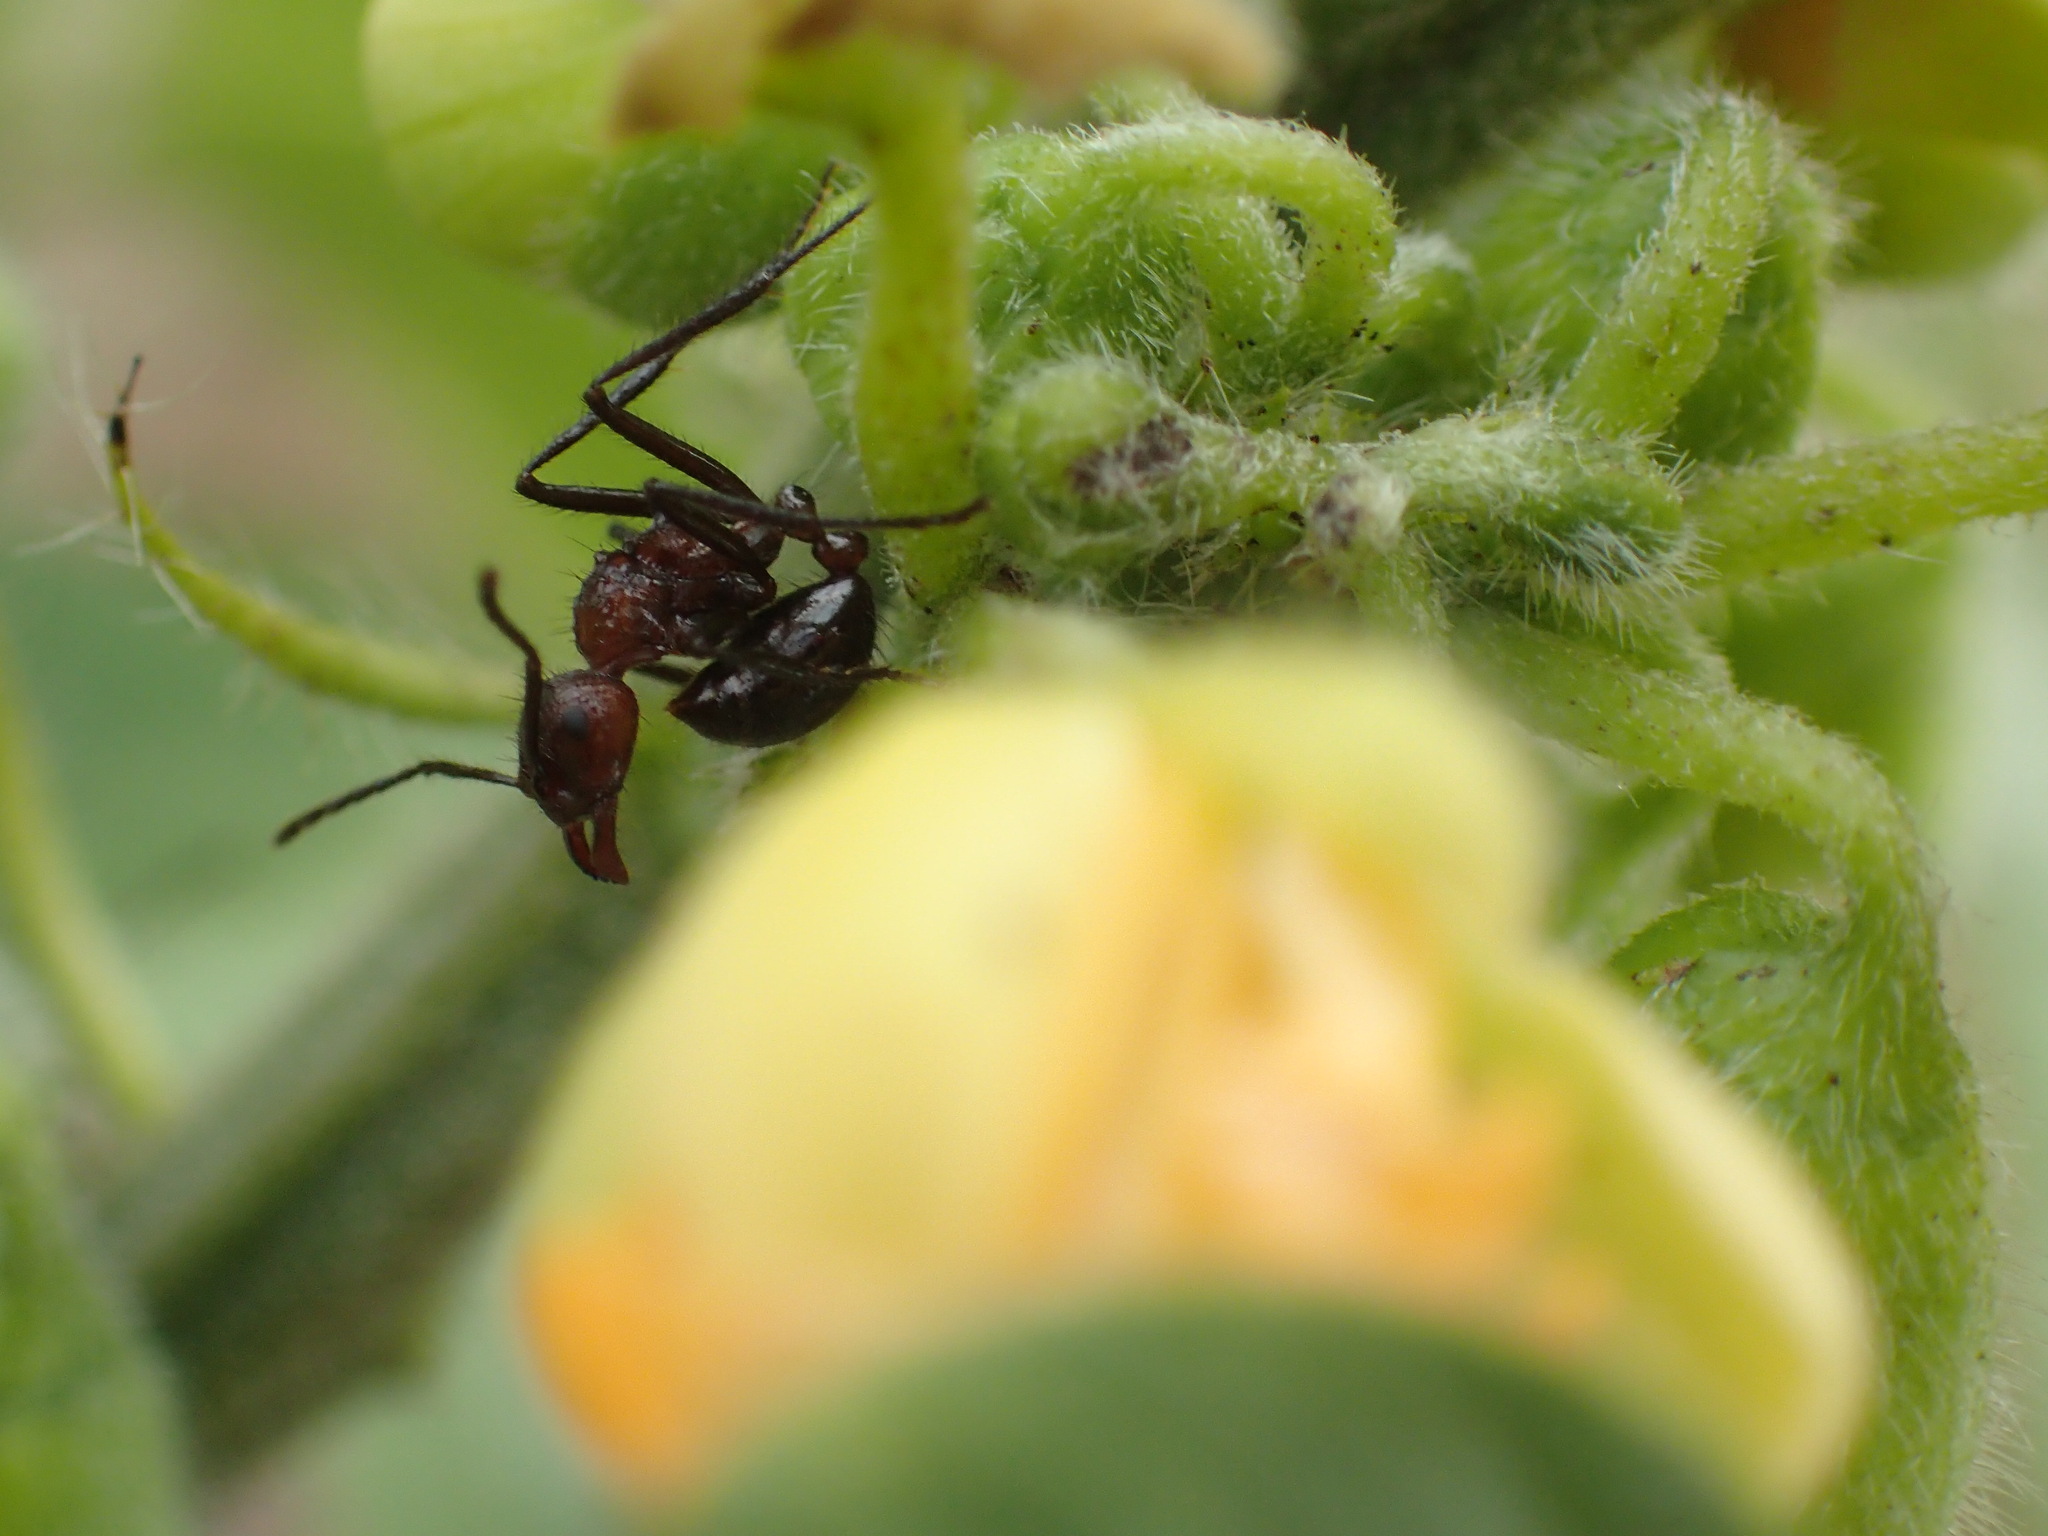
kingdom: Animalia
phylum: Arthropoda
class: Insecta
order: Hymenoptera
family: Formicidae
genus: Myrmicaria
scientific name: Myrmicaria natalensis
